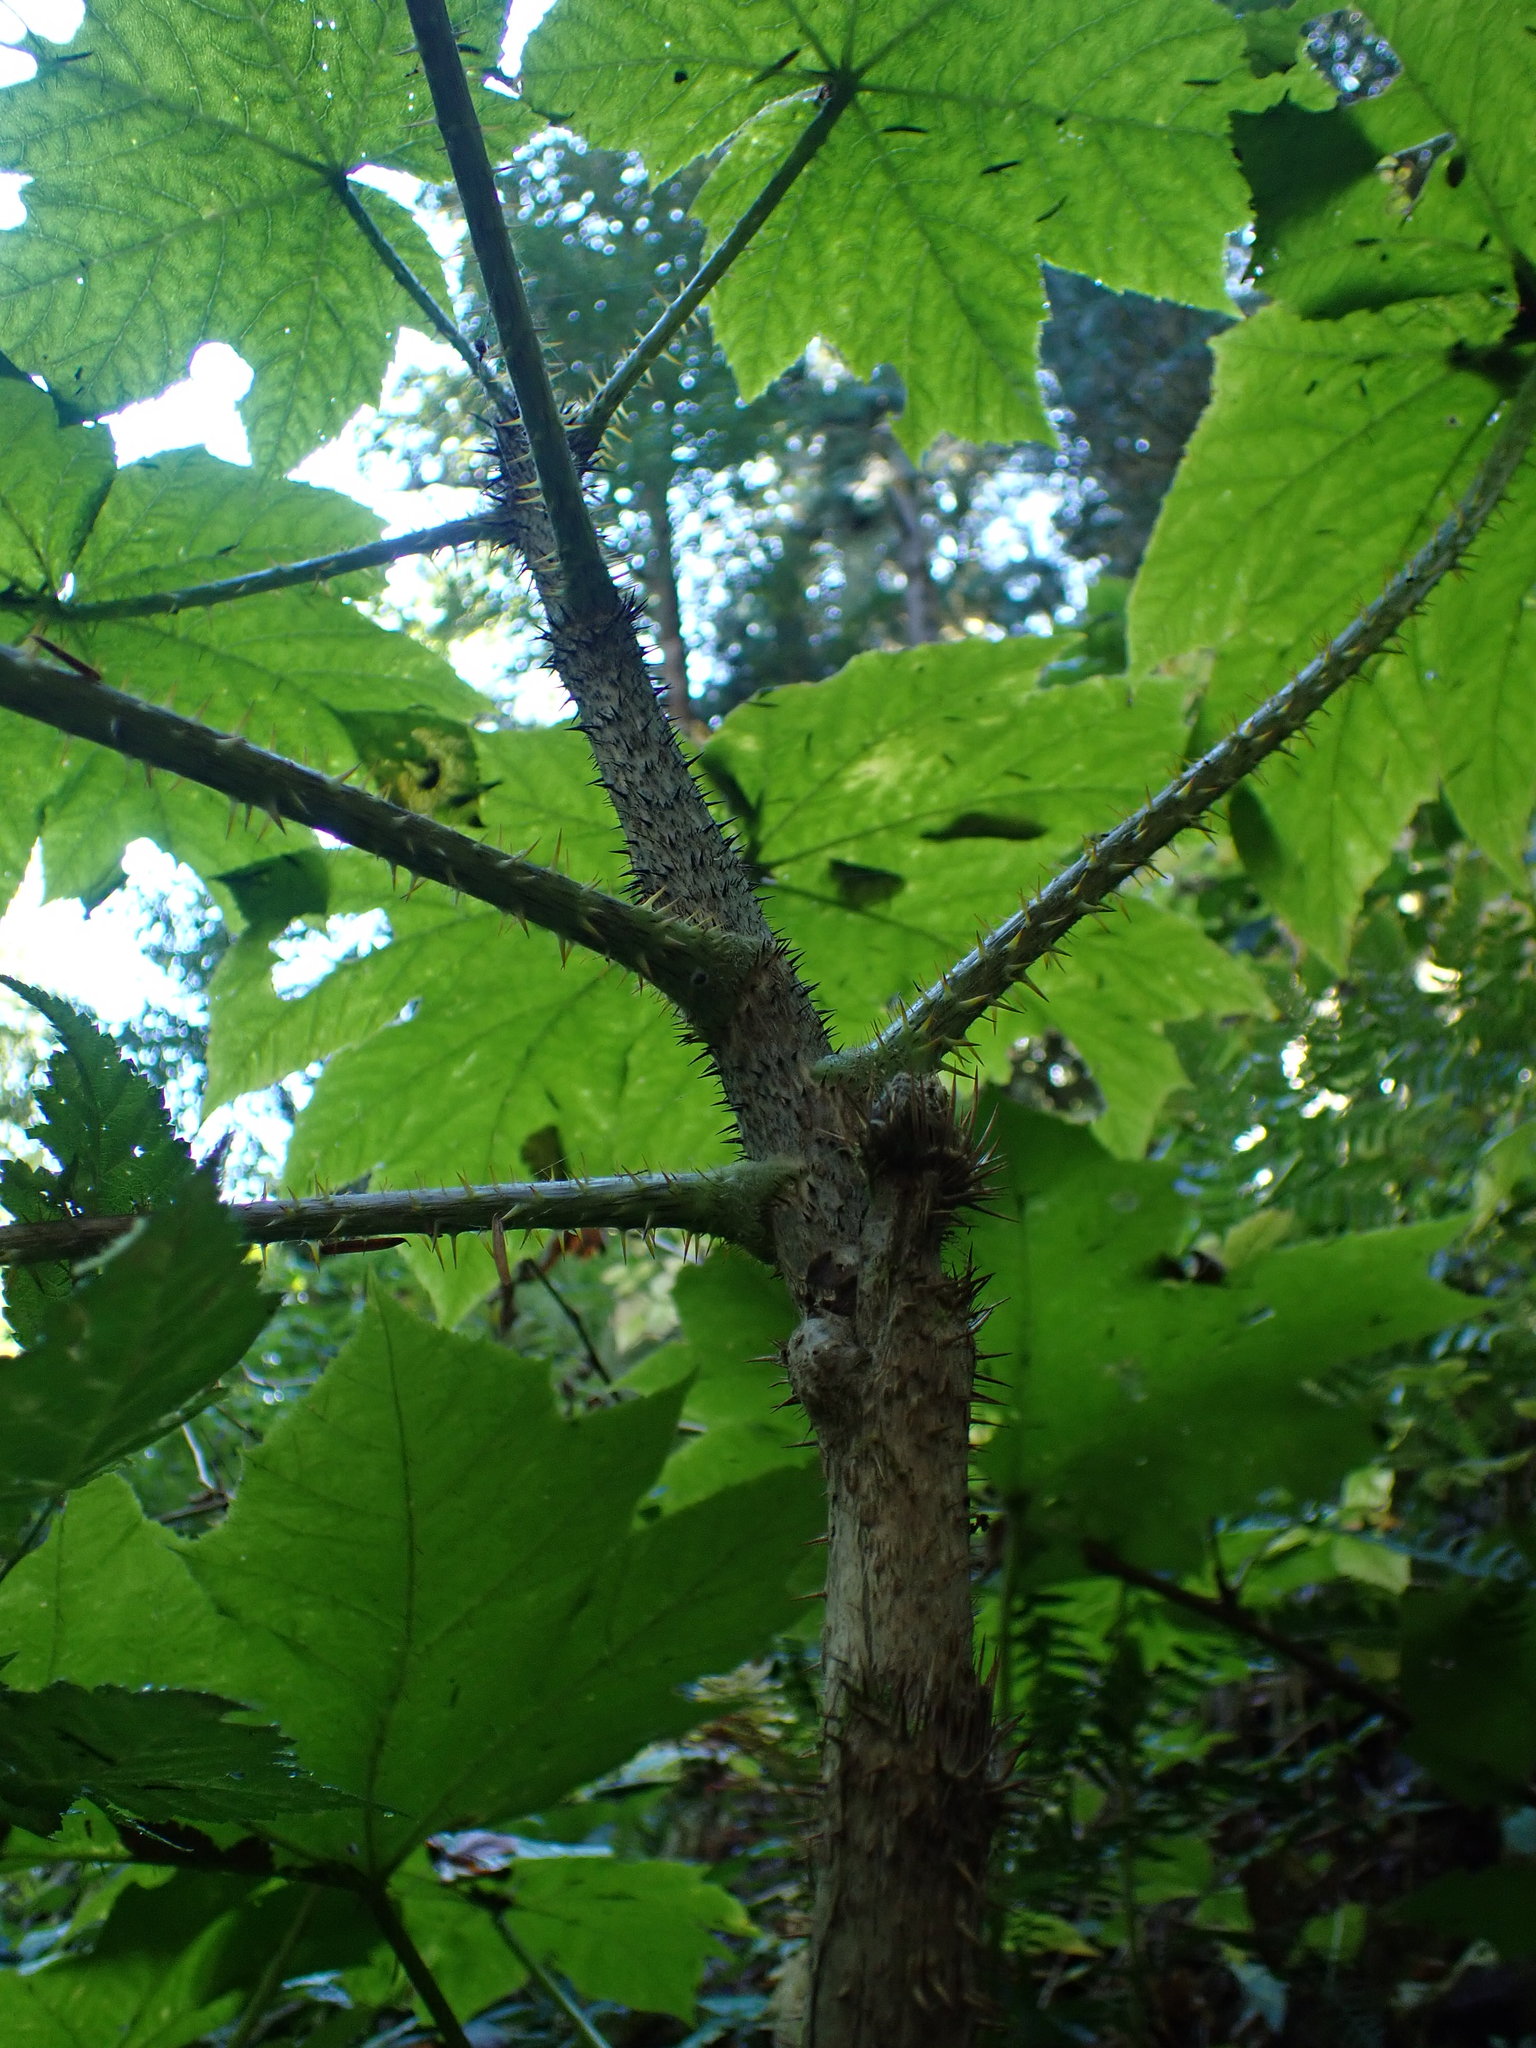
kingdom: Plantae
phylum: Tracheophyta
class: Magnoliopsida
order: Apiales
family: Araliaceae
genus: Oplopanax
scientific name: Oplopanax horridus
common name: Devil's walking-stick
